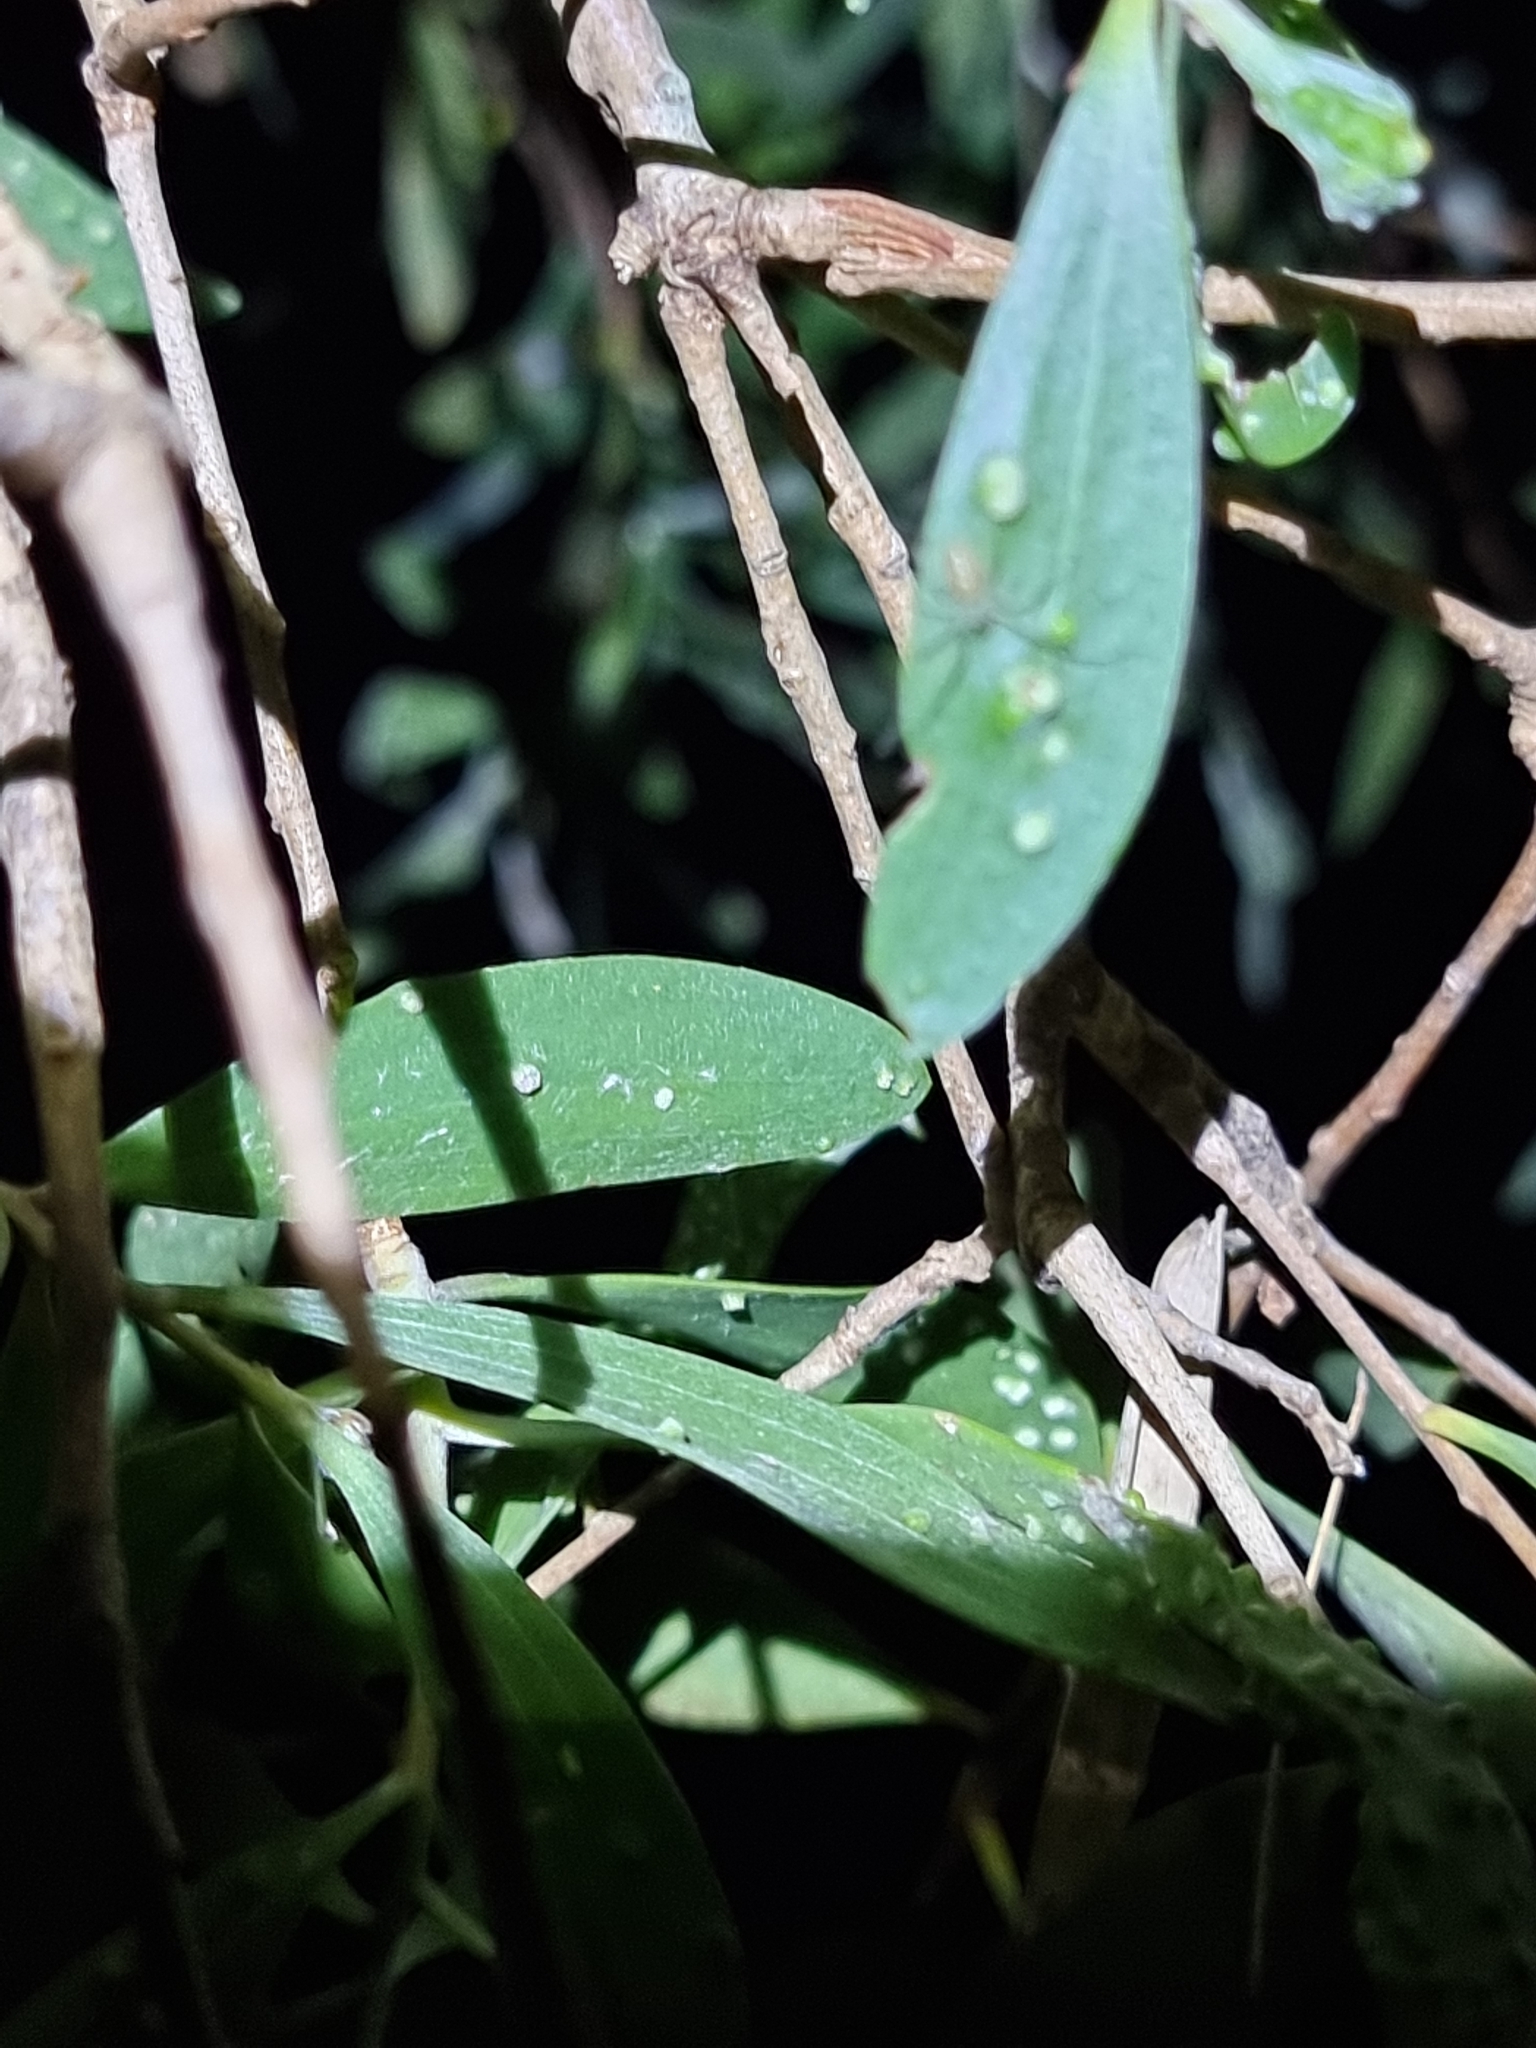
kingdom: Animalia
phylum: Arthropoda
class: Arachnida
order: Araneae
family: Theridiidae
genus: Thwaitesia
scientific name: Thwaitesia nigronodosa
